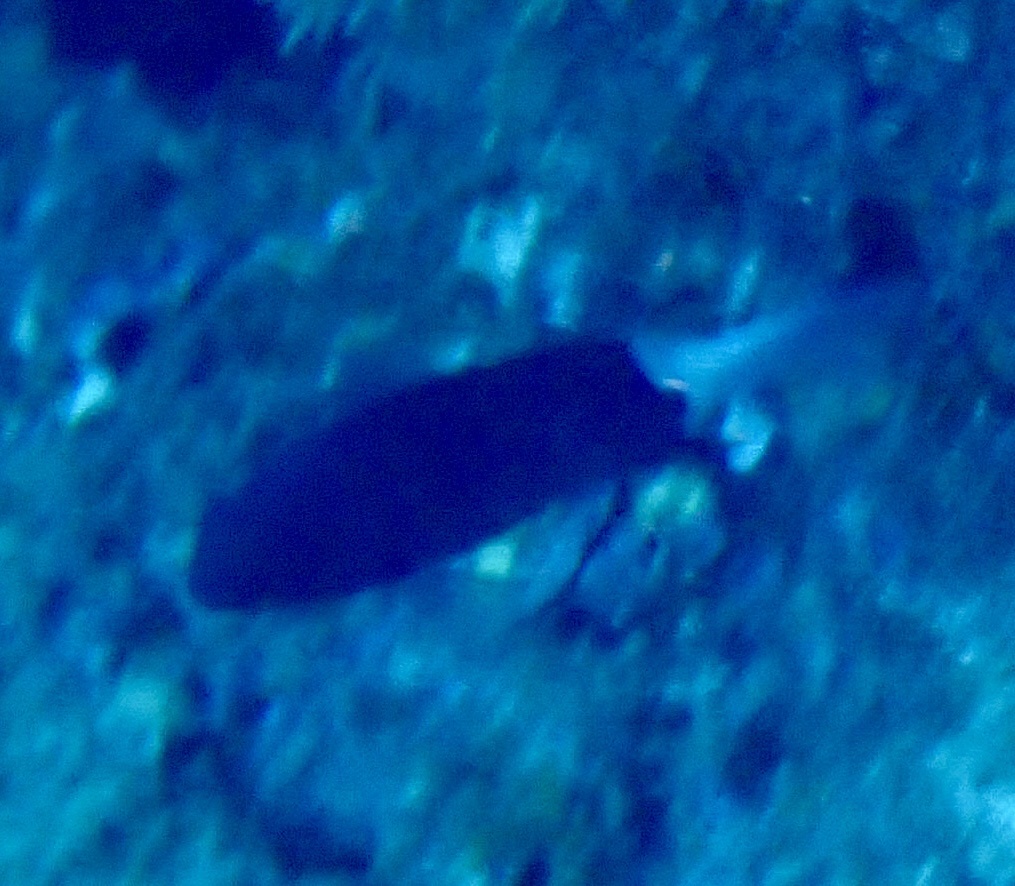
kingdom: Animalia
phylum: Chordata
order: Perciformes
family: Pomacentridae
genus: Pycnochromis
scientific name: Pycnochromis margaritifer
